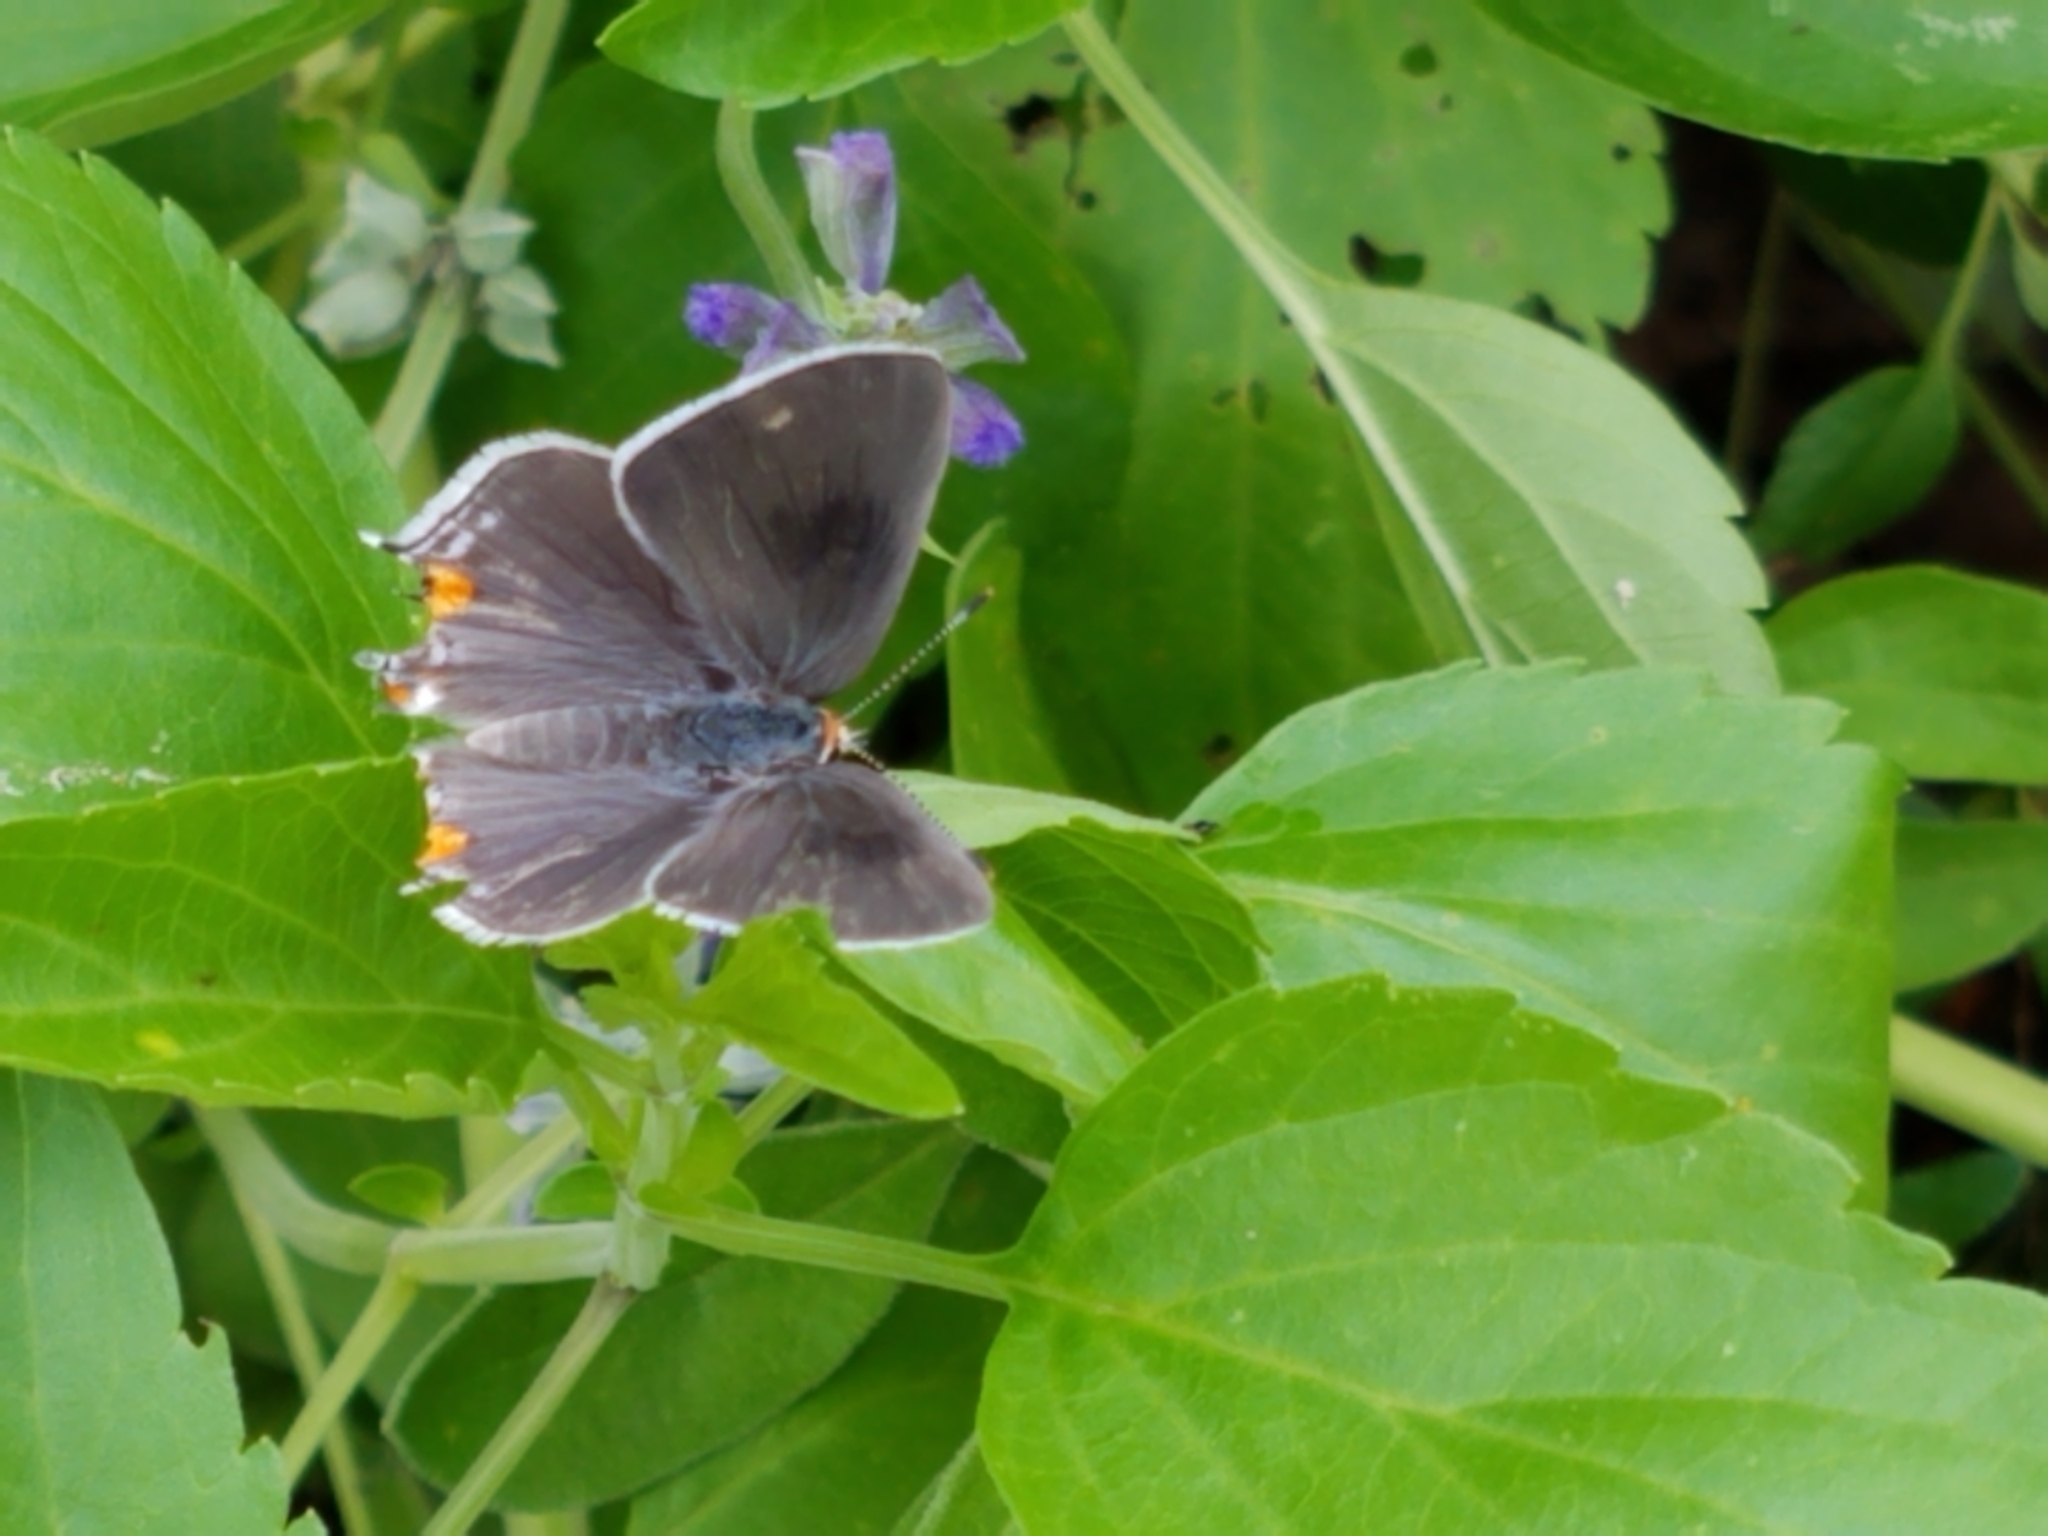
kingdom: Animalia
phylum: Arthropoda
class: Insecta
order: Lepidoptera
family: Lycaenidae
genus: Strymon
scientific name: Strymon melinus
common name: Gray hairstreak
